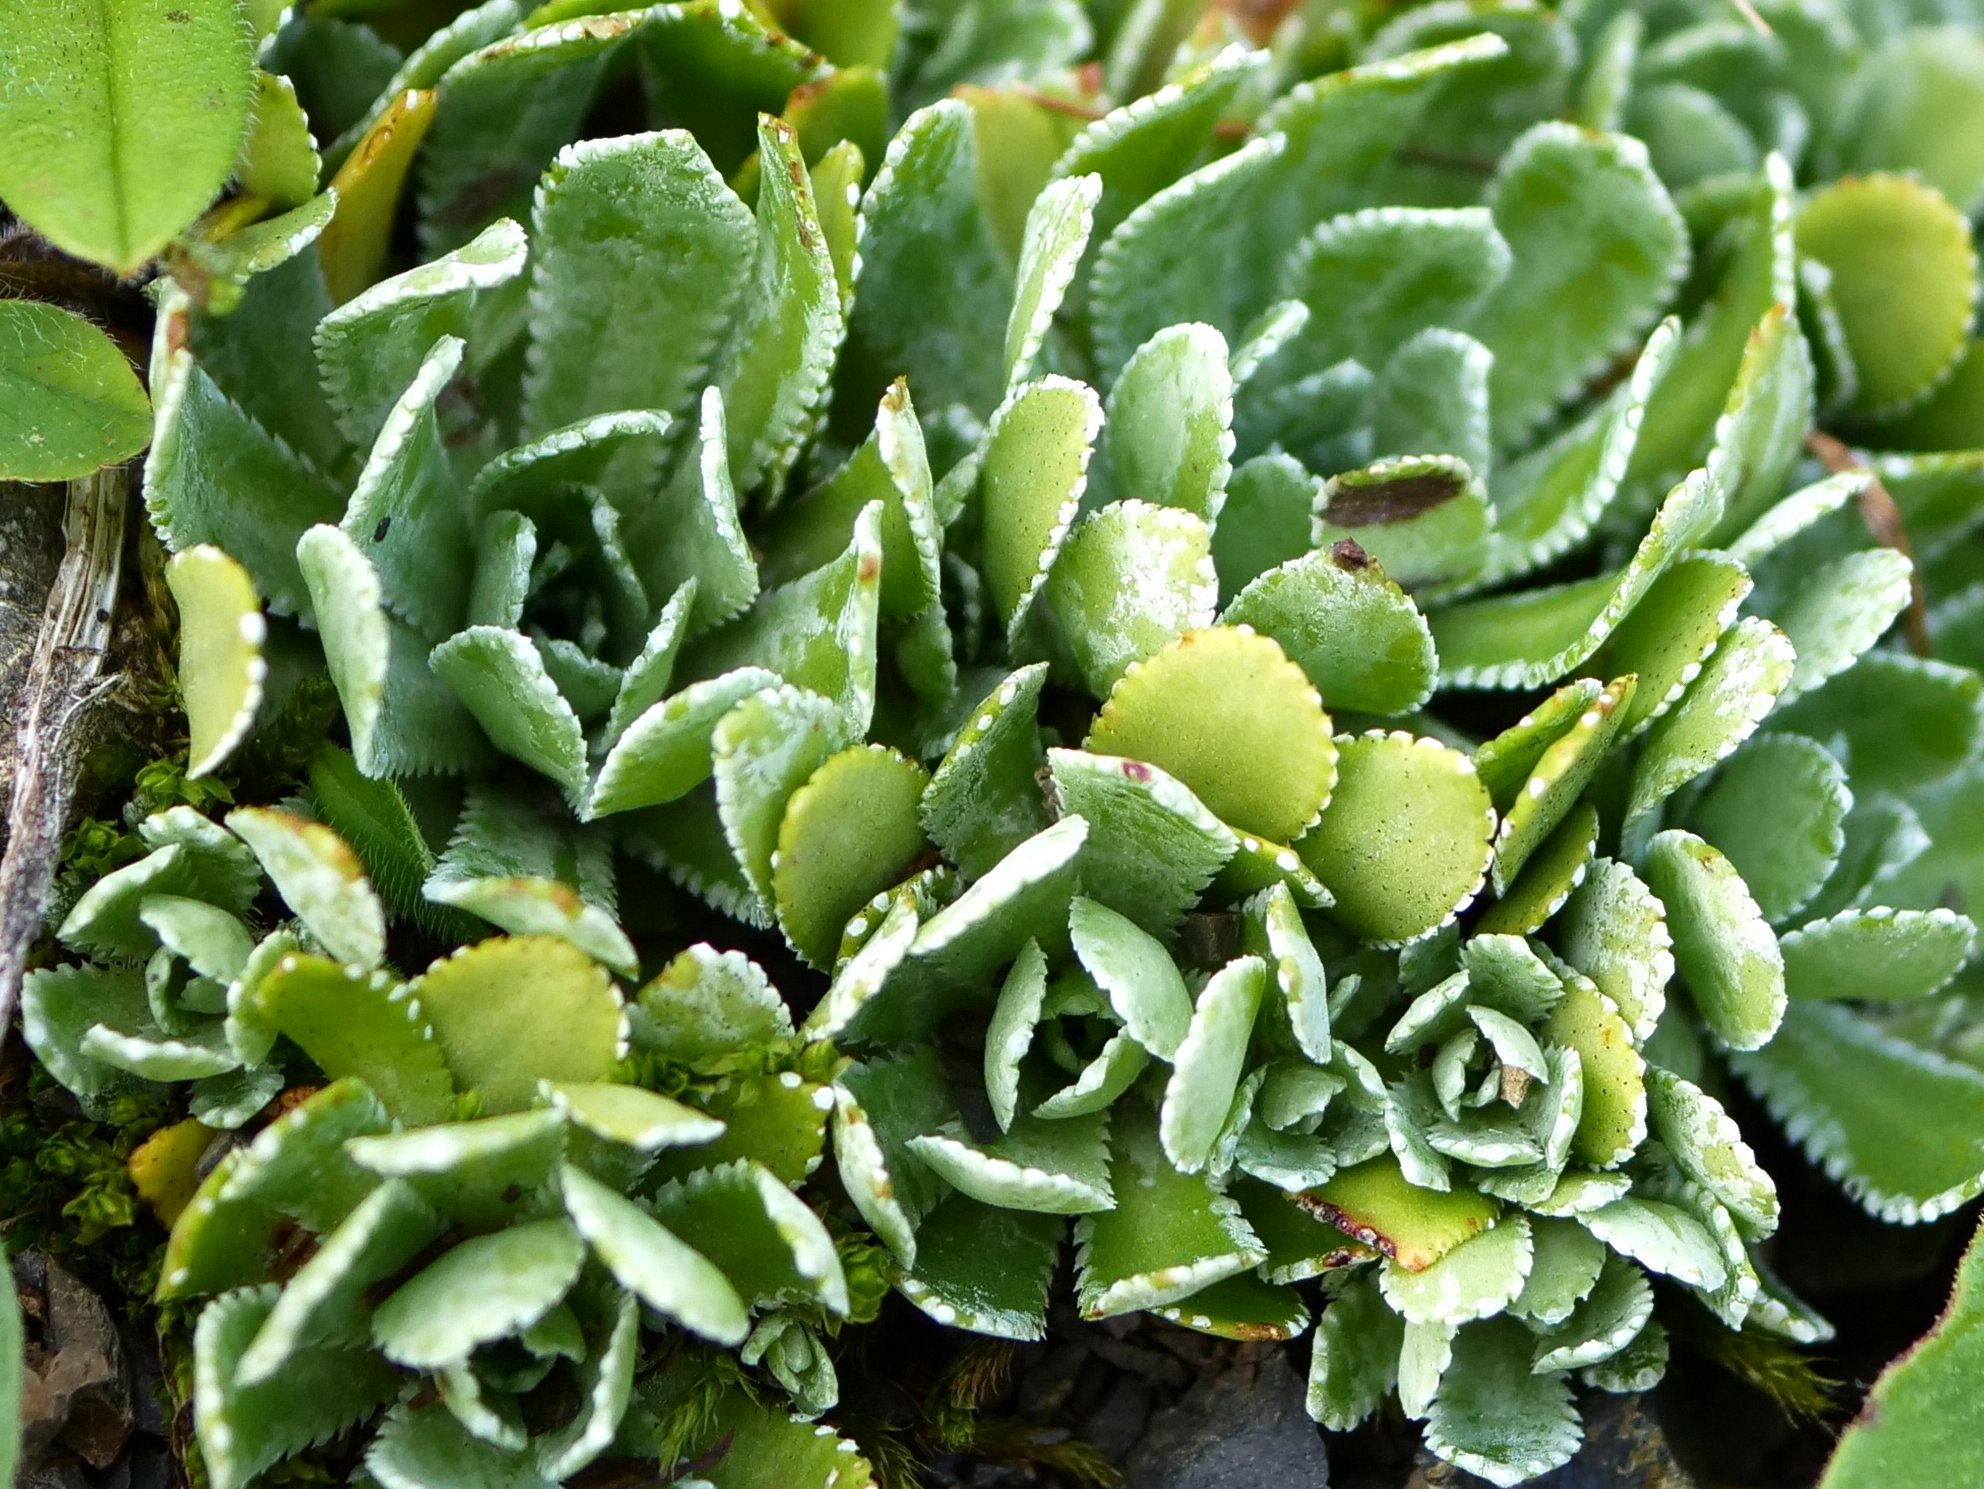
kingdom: Plantae
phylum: Tracheophyta
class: Magnoliopsida
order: Saxifragales
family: Saxifragaceae
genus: Saxifraga
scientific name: Saxifraga paniculata
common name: Livelong saxifrage
